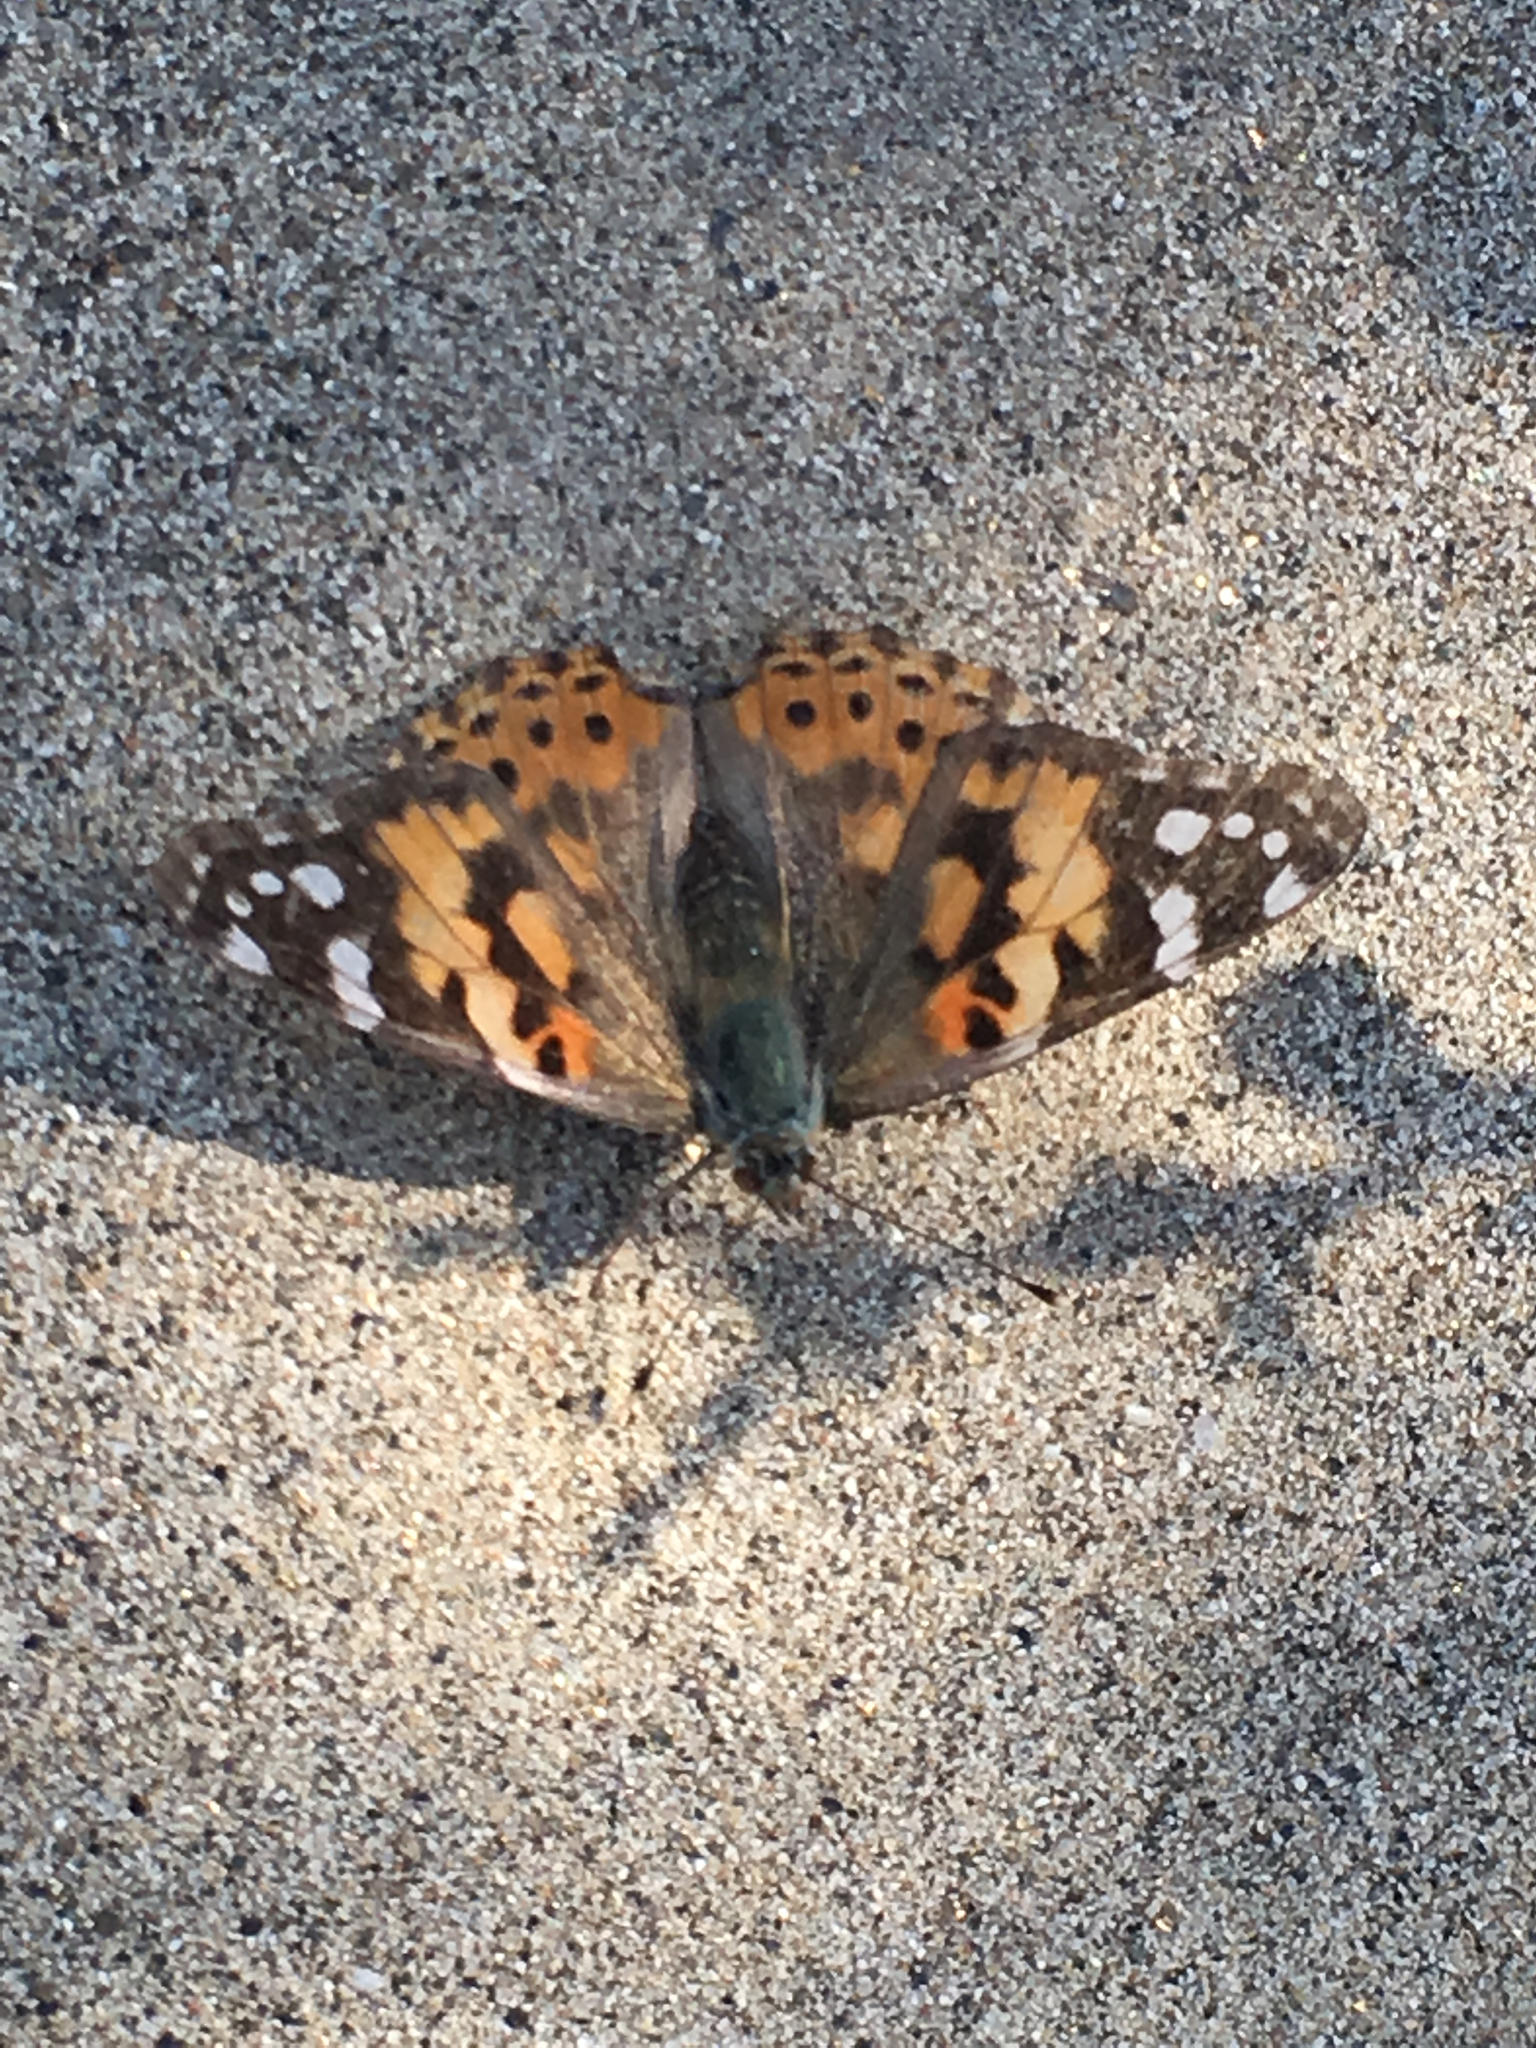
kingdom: Animalia
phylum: Arthropoda
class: Insecta
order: Lepidoptera
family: Nymphalidae
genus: Vanessa
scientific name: Vanessa cardui
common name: Painted lady
